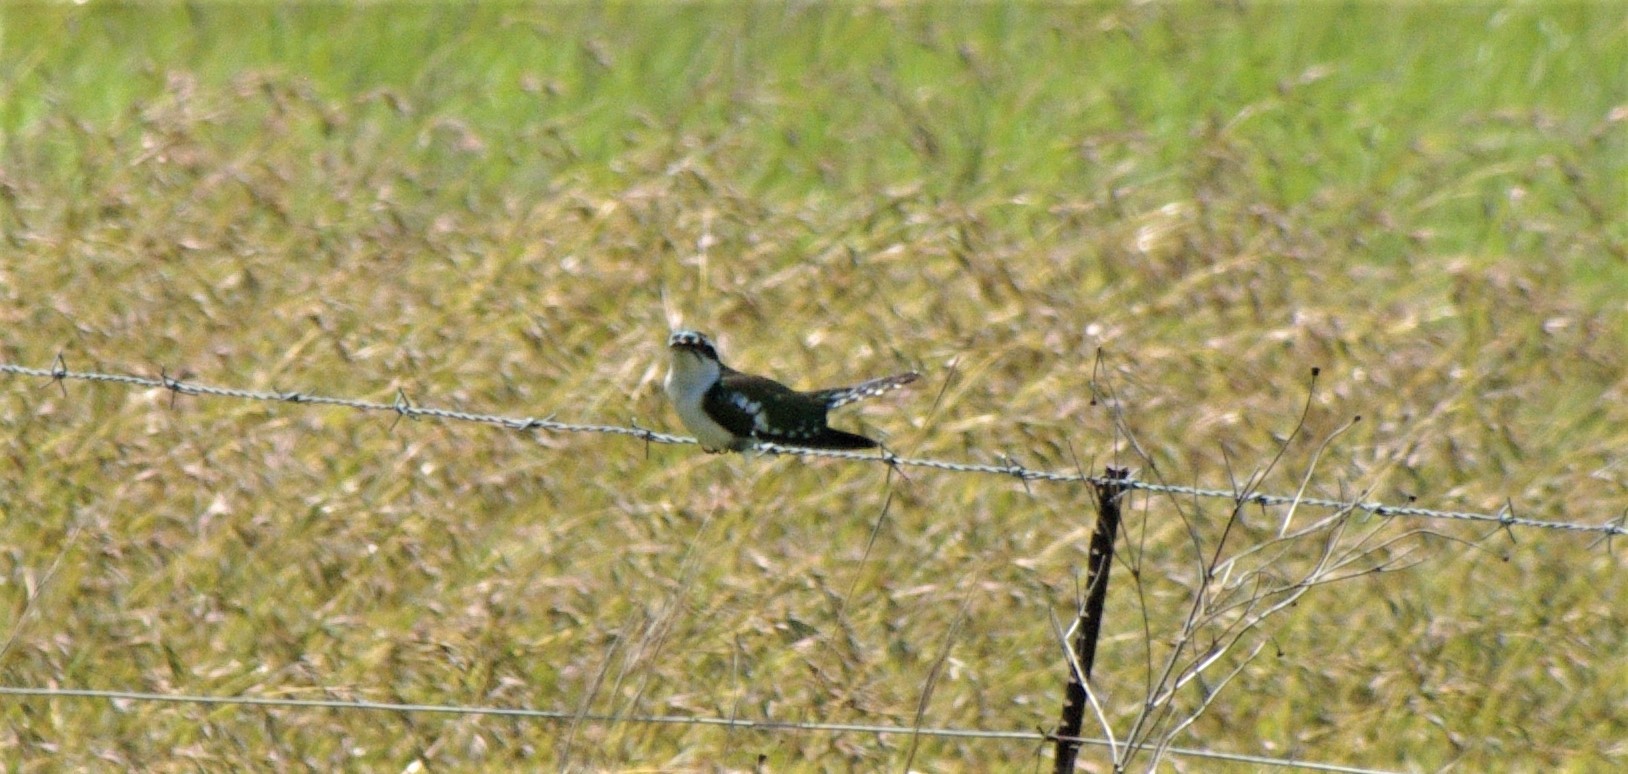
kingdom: Animalia
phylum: Chordata
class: Aves
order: Cuculiformes
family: Cuculidae
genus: Chrysococcyx
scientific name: Chrysococcyx caprius
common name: Diederik cuckoo
